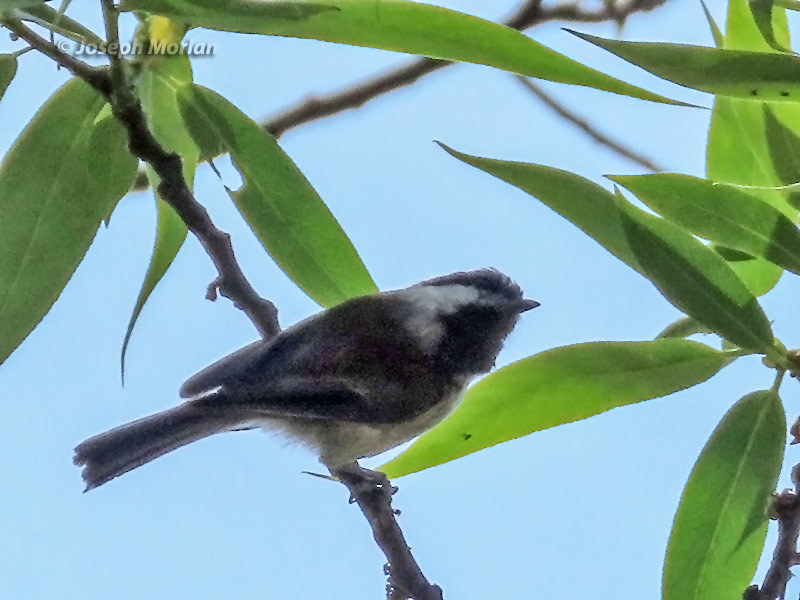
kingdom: Animalia
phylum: Chordata
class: Aves
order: Passeriformes
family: Paridae
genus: Poecile
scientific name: Poecile rufescens
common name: Chestnut-backed chickadee
